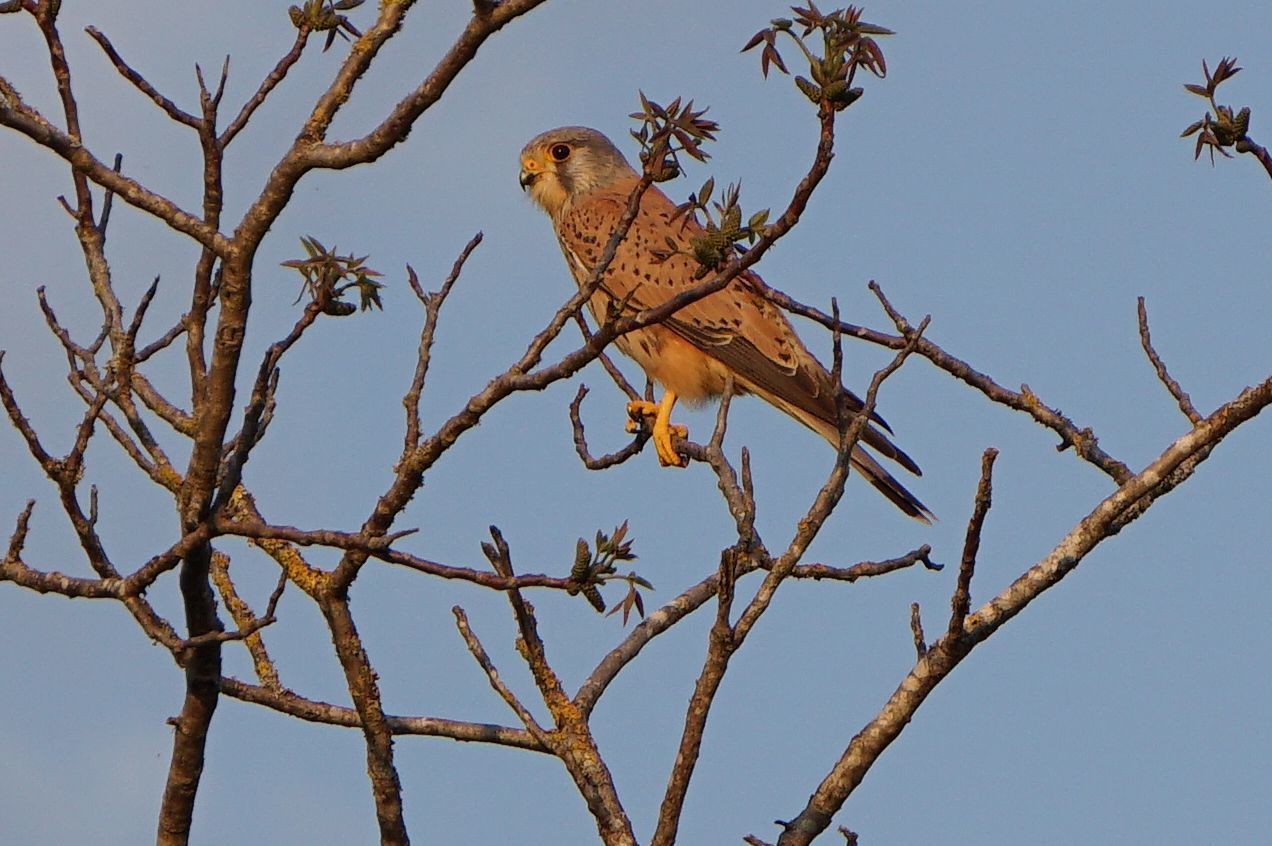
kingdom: Animalia
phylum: Chordata
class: Aves
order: Falconiformes
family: Falconidae
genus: Falco
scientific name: Falco tinnunculus
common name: Common kestrel
